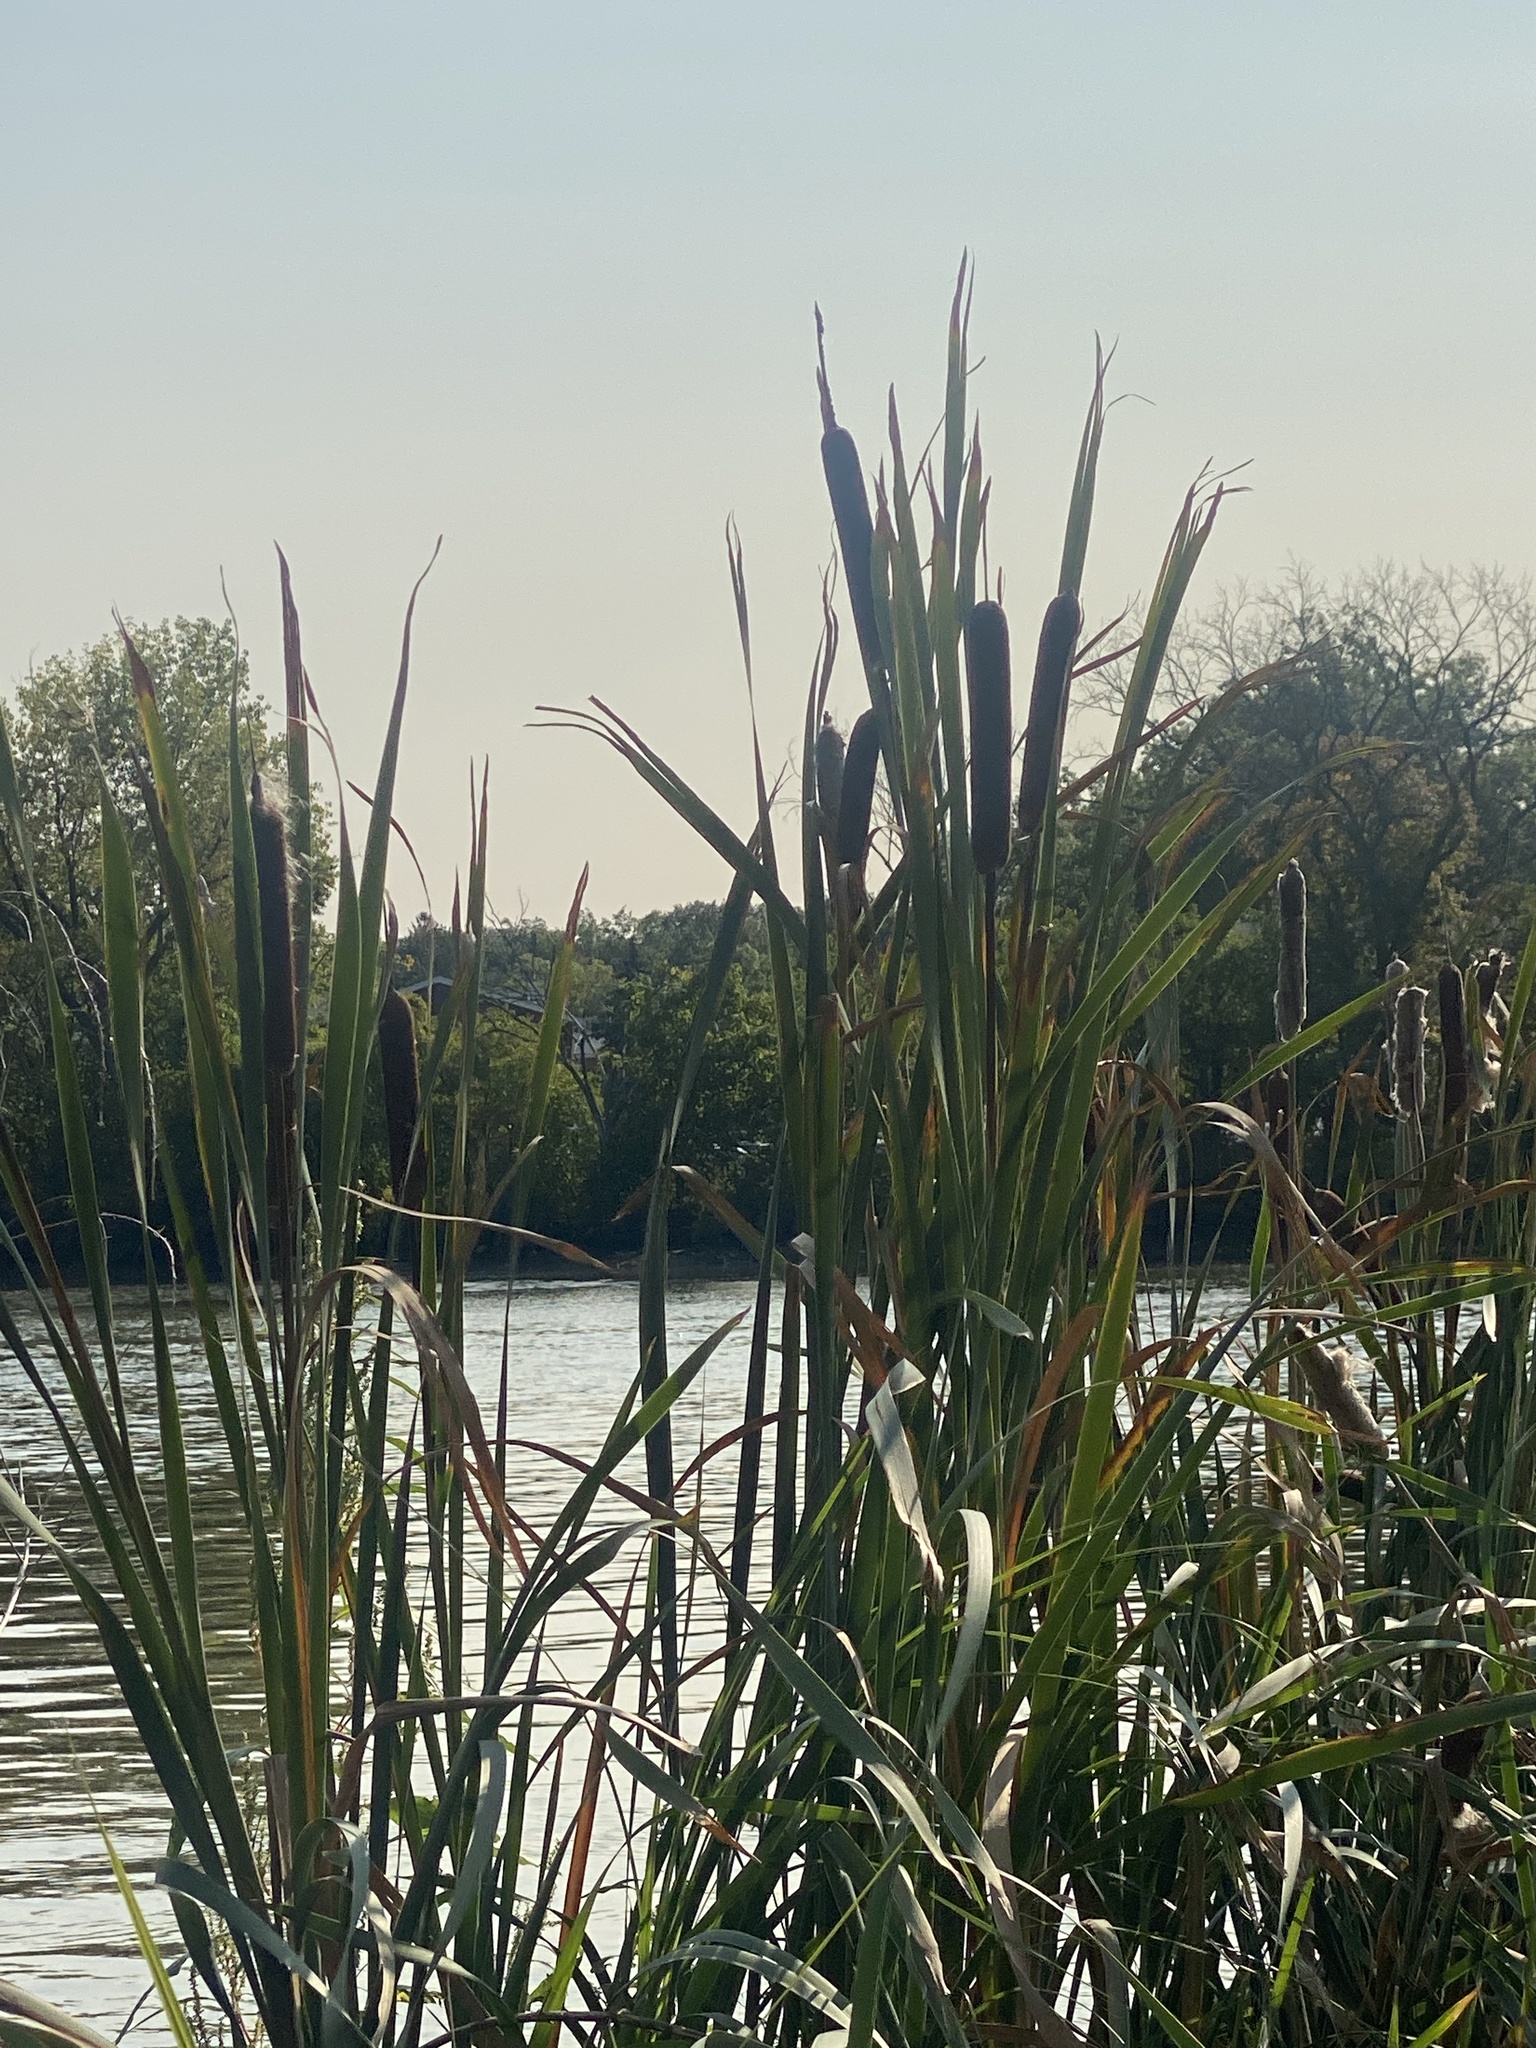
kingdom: Plantae
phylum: Tracheophyta
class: Liliopsida
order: Poales
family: Typhaceae
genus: Typha
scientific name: Typha latifolia
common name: Broadleaf cattail
